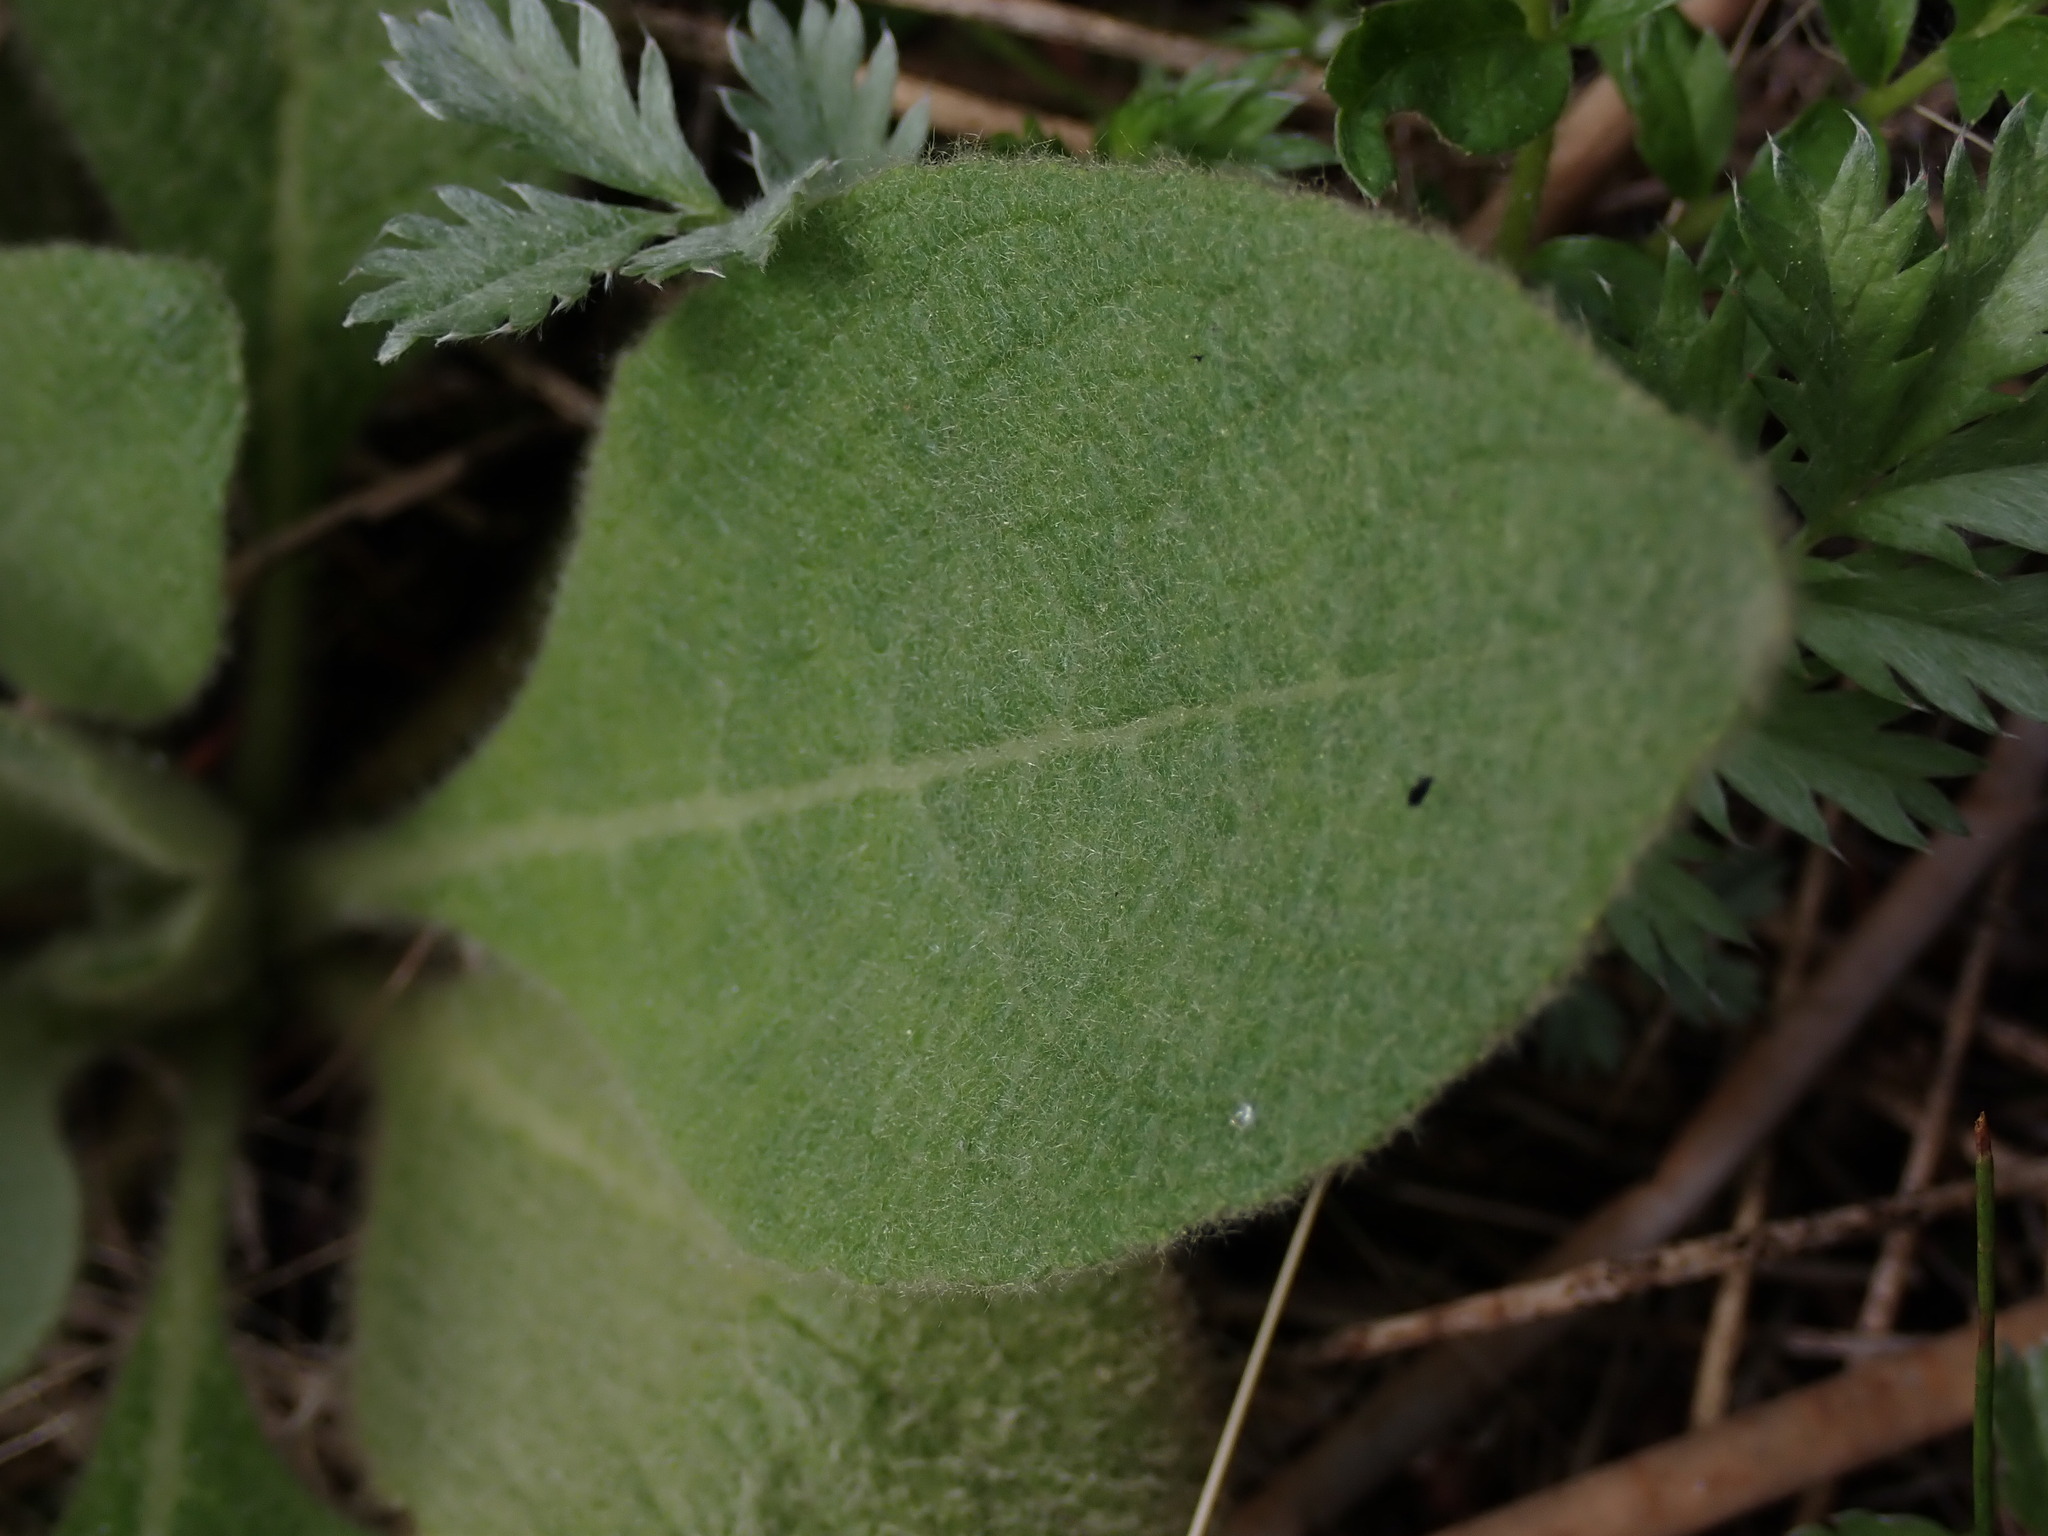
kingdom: Plantae
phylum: Tracheophyta
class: Magnoliopsida
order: Lamiales
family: Scrophulariaceae
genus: Verbascum
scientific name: Verbascum thapsus
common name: Common mullein
